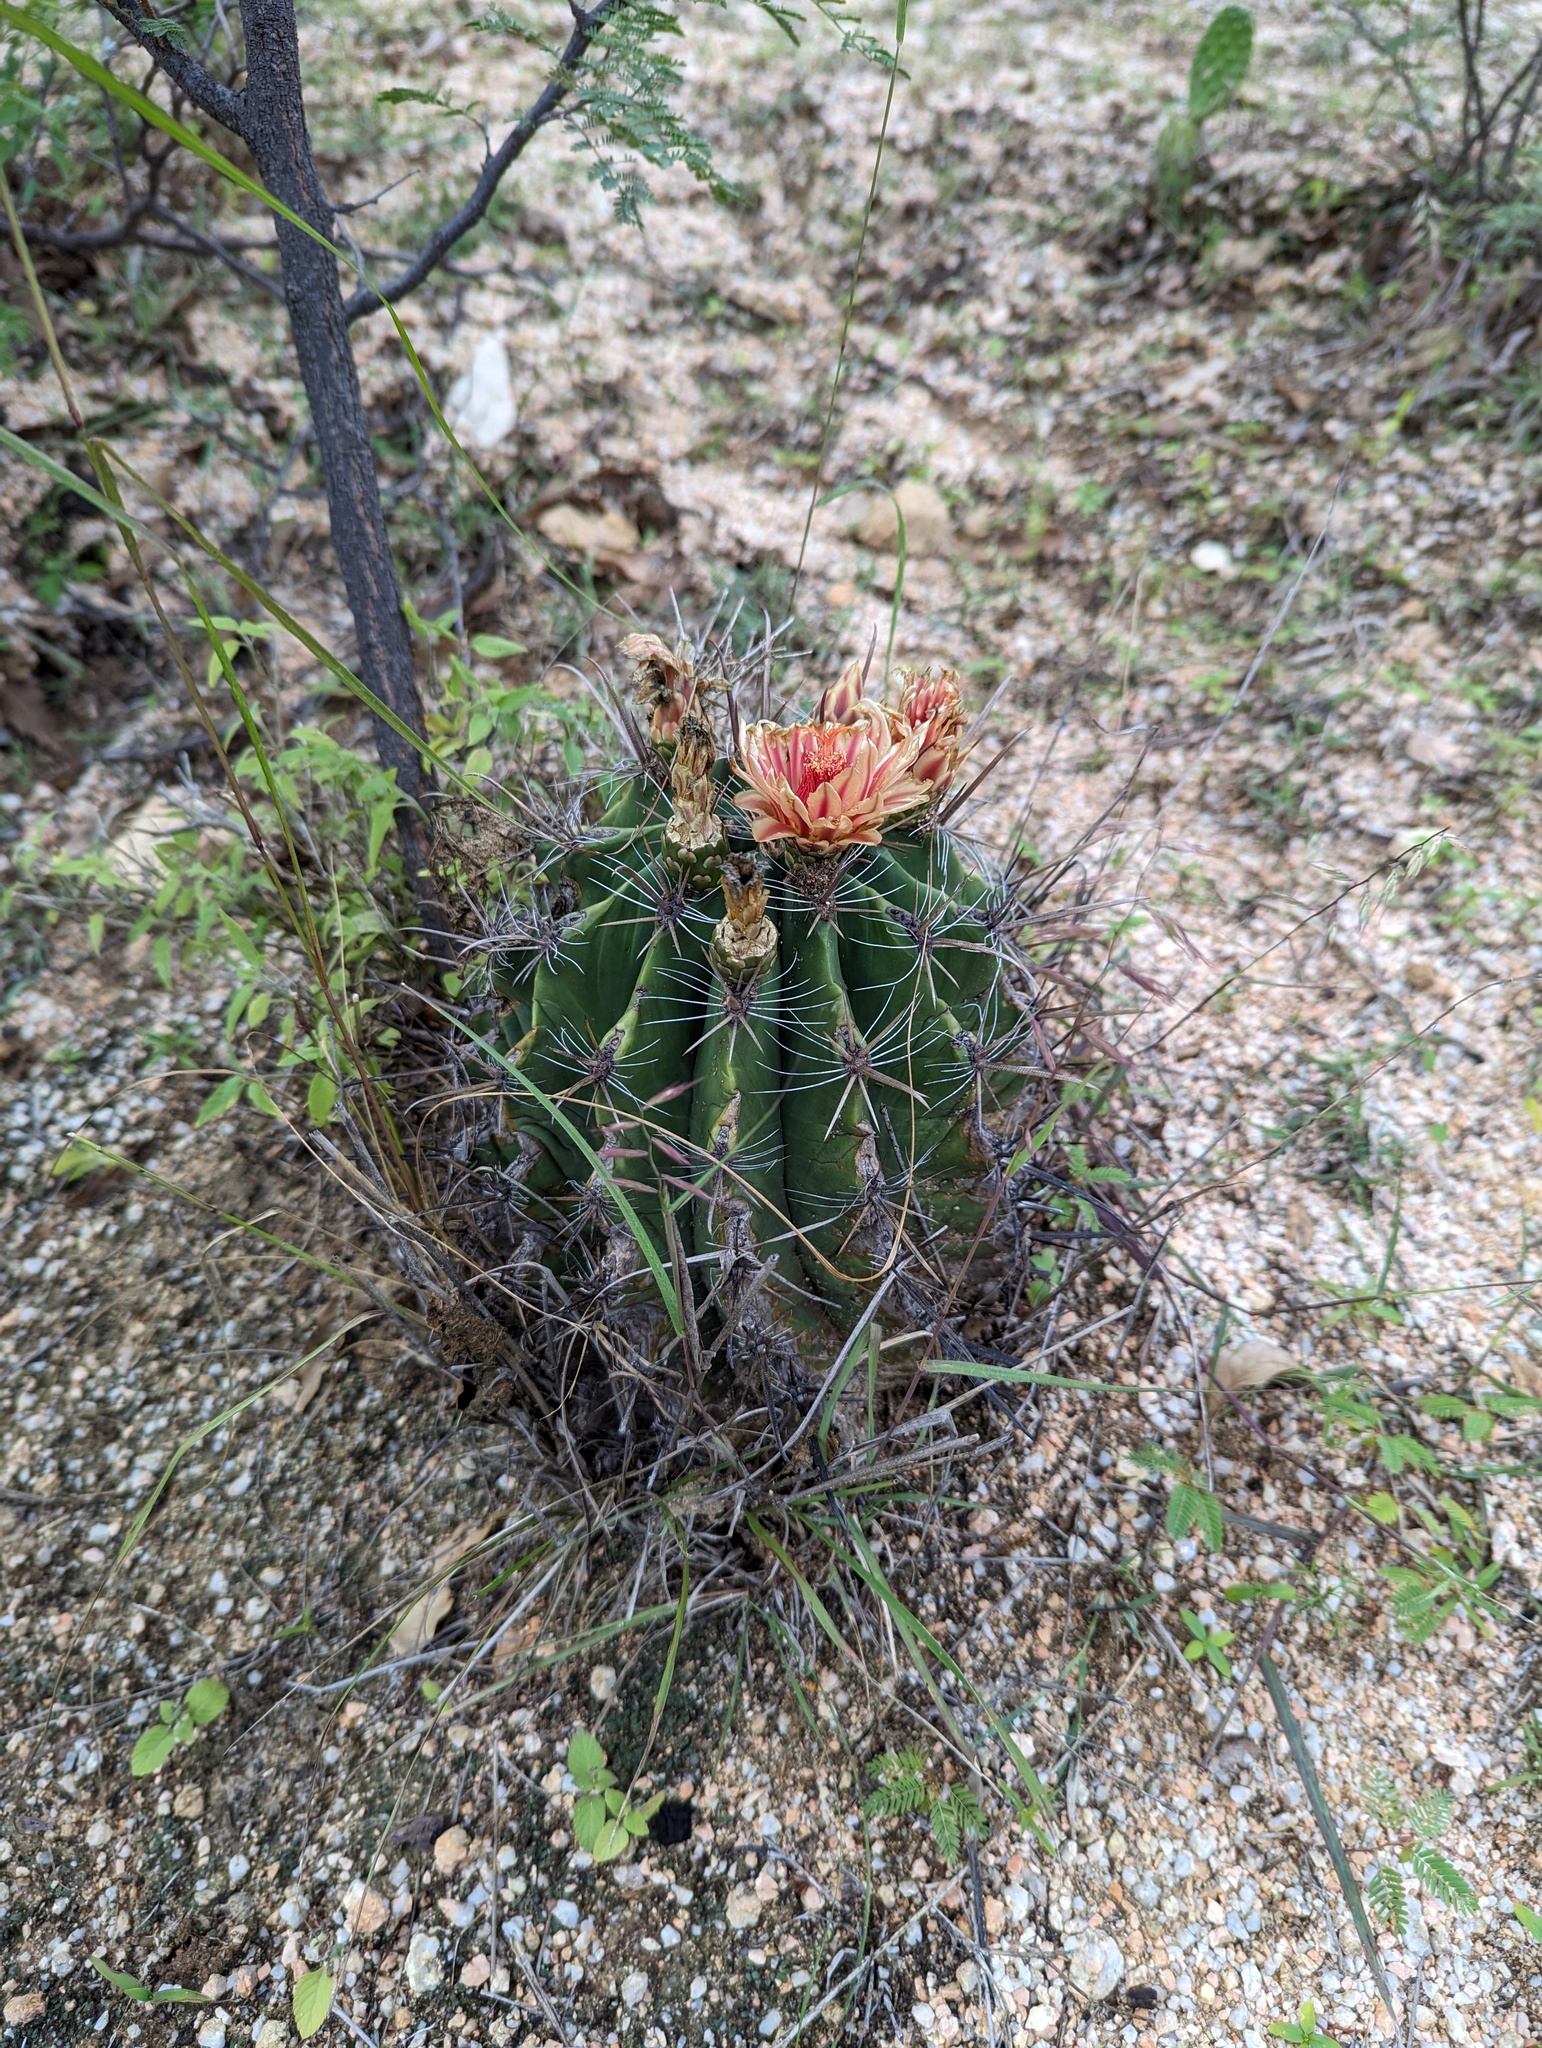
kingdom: Plantae
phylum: Tracheophyta
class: Magnoliopsida
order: Caryophyllales
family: Cactaceae
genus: Ferocactus
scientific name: Ferocactus townsendianus
